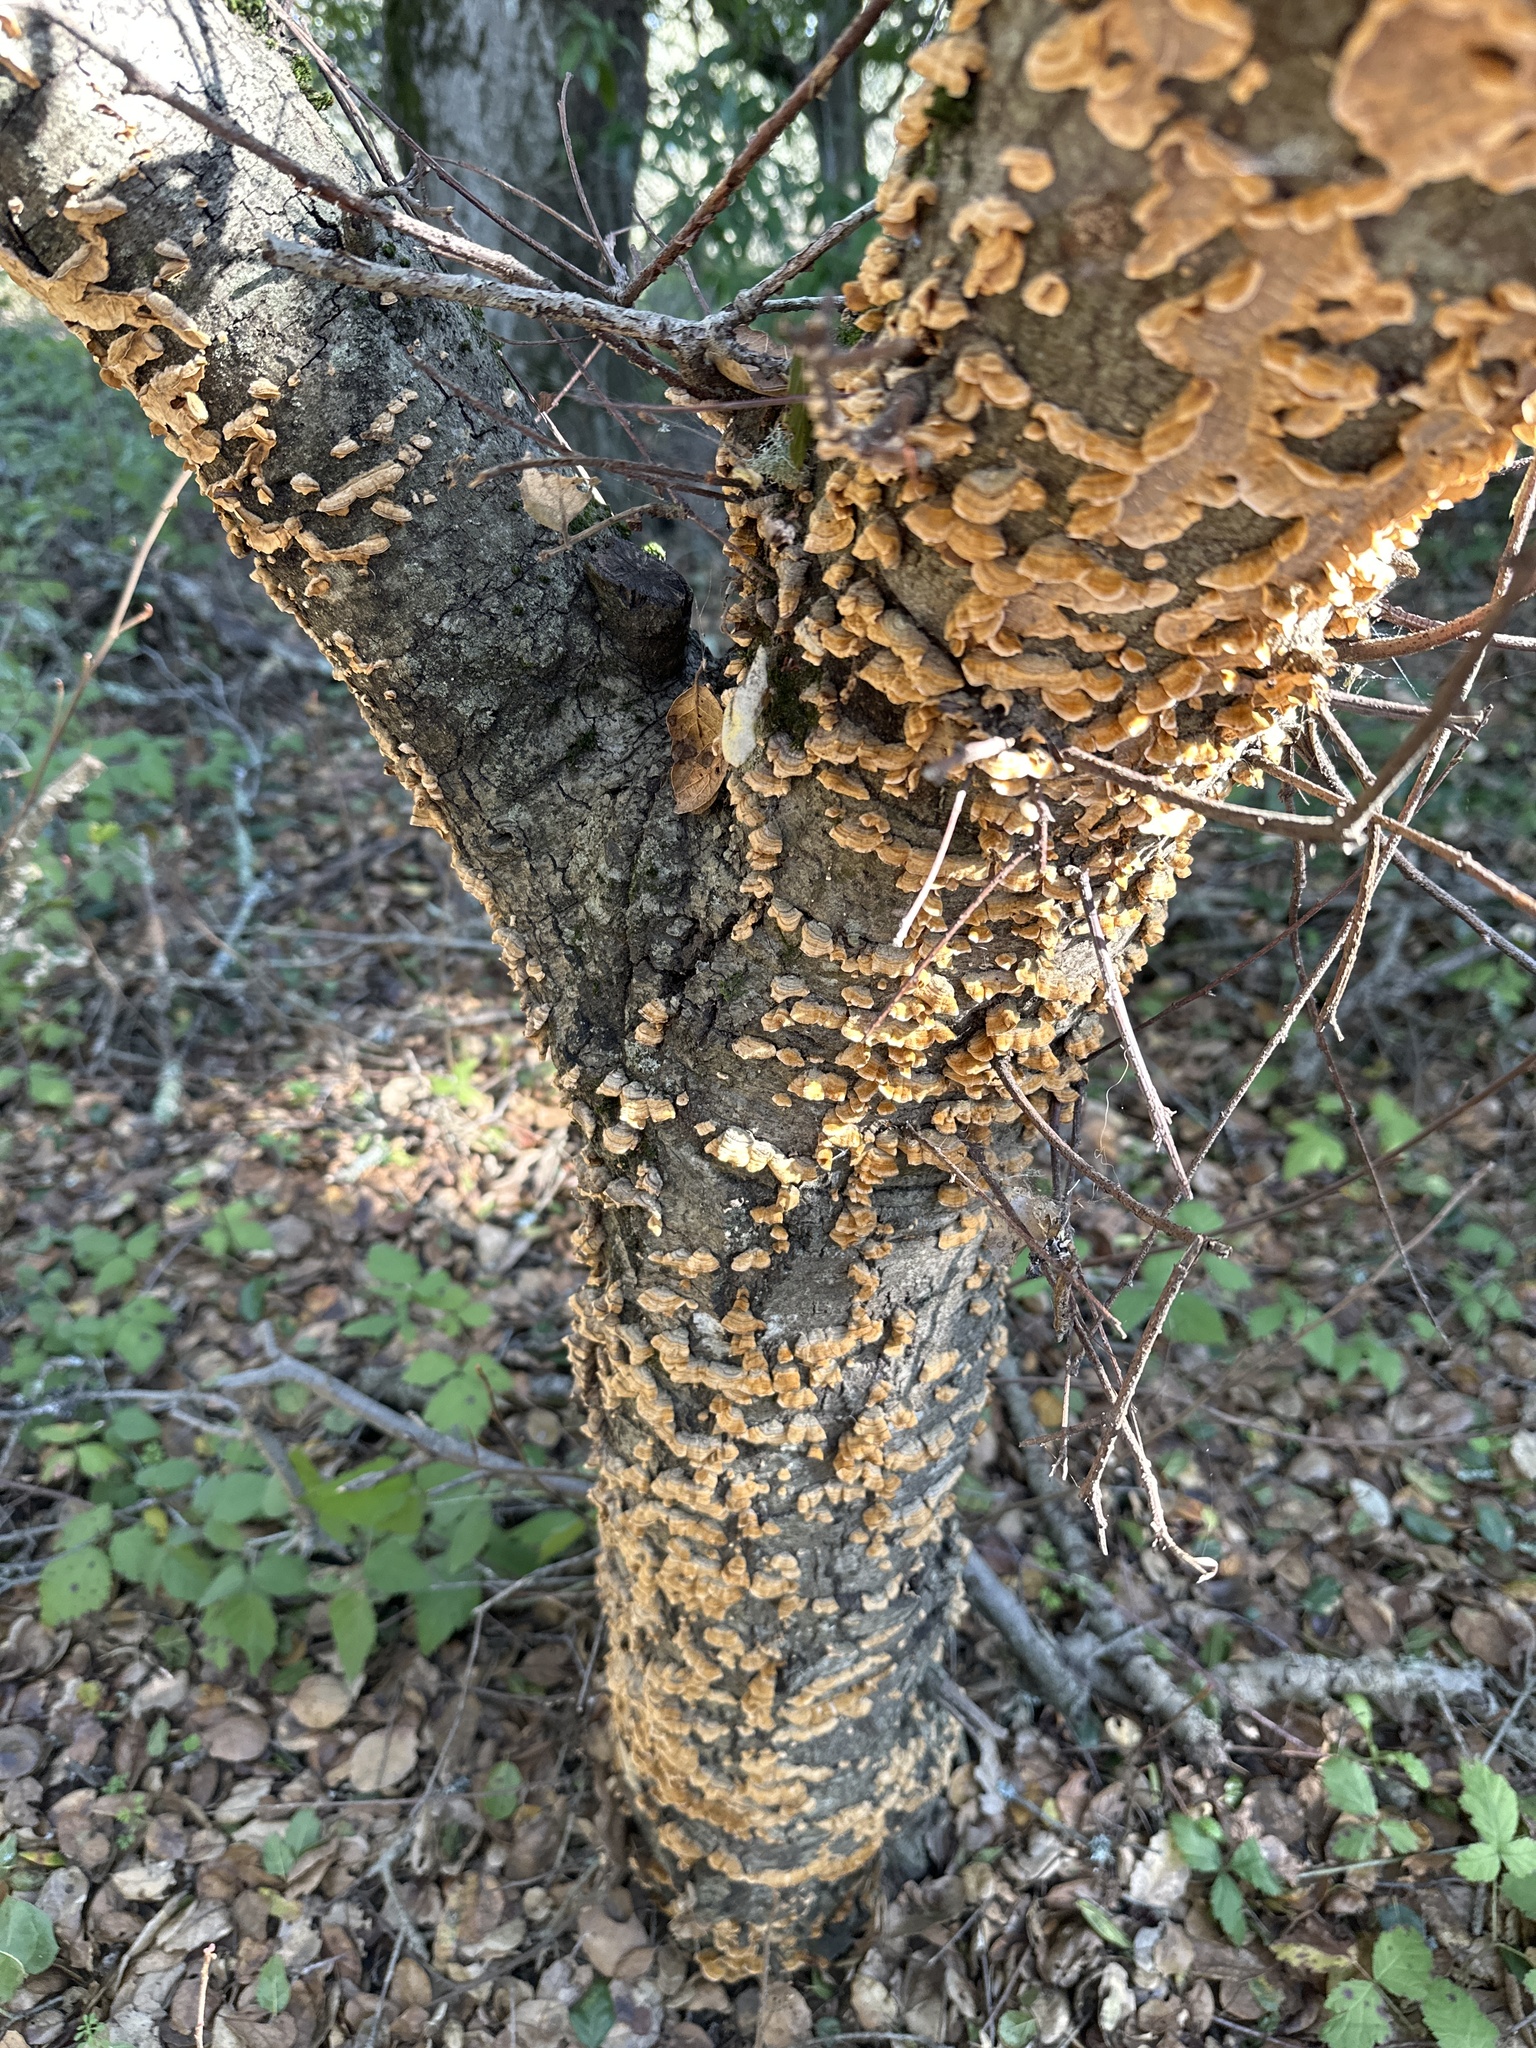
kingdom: Fungi
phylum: Basidiomycota
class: Agaricomycetes
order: Russulales
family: Stereaceae
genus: Stereum
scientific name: Stereum hirsutum
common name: Hairy curtain crust
